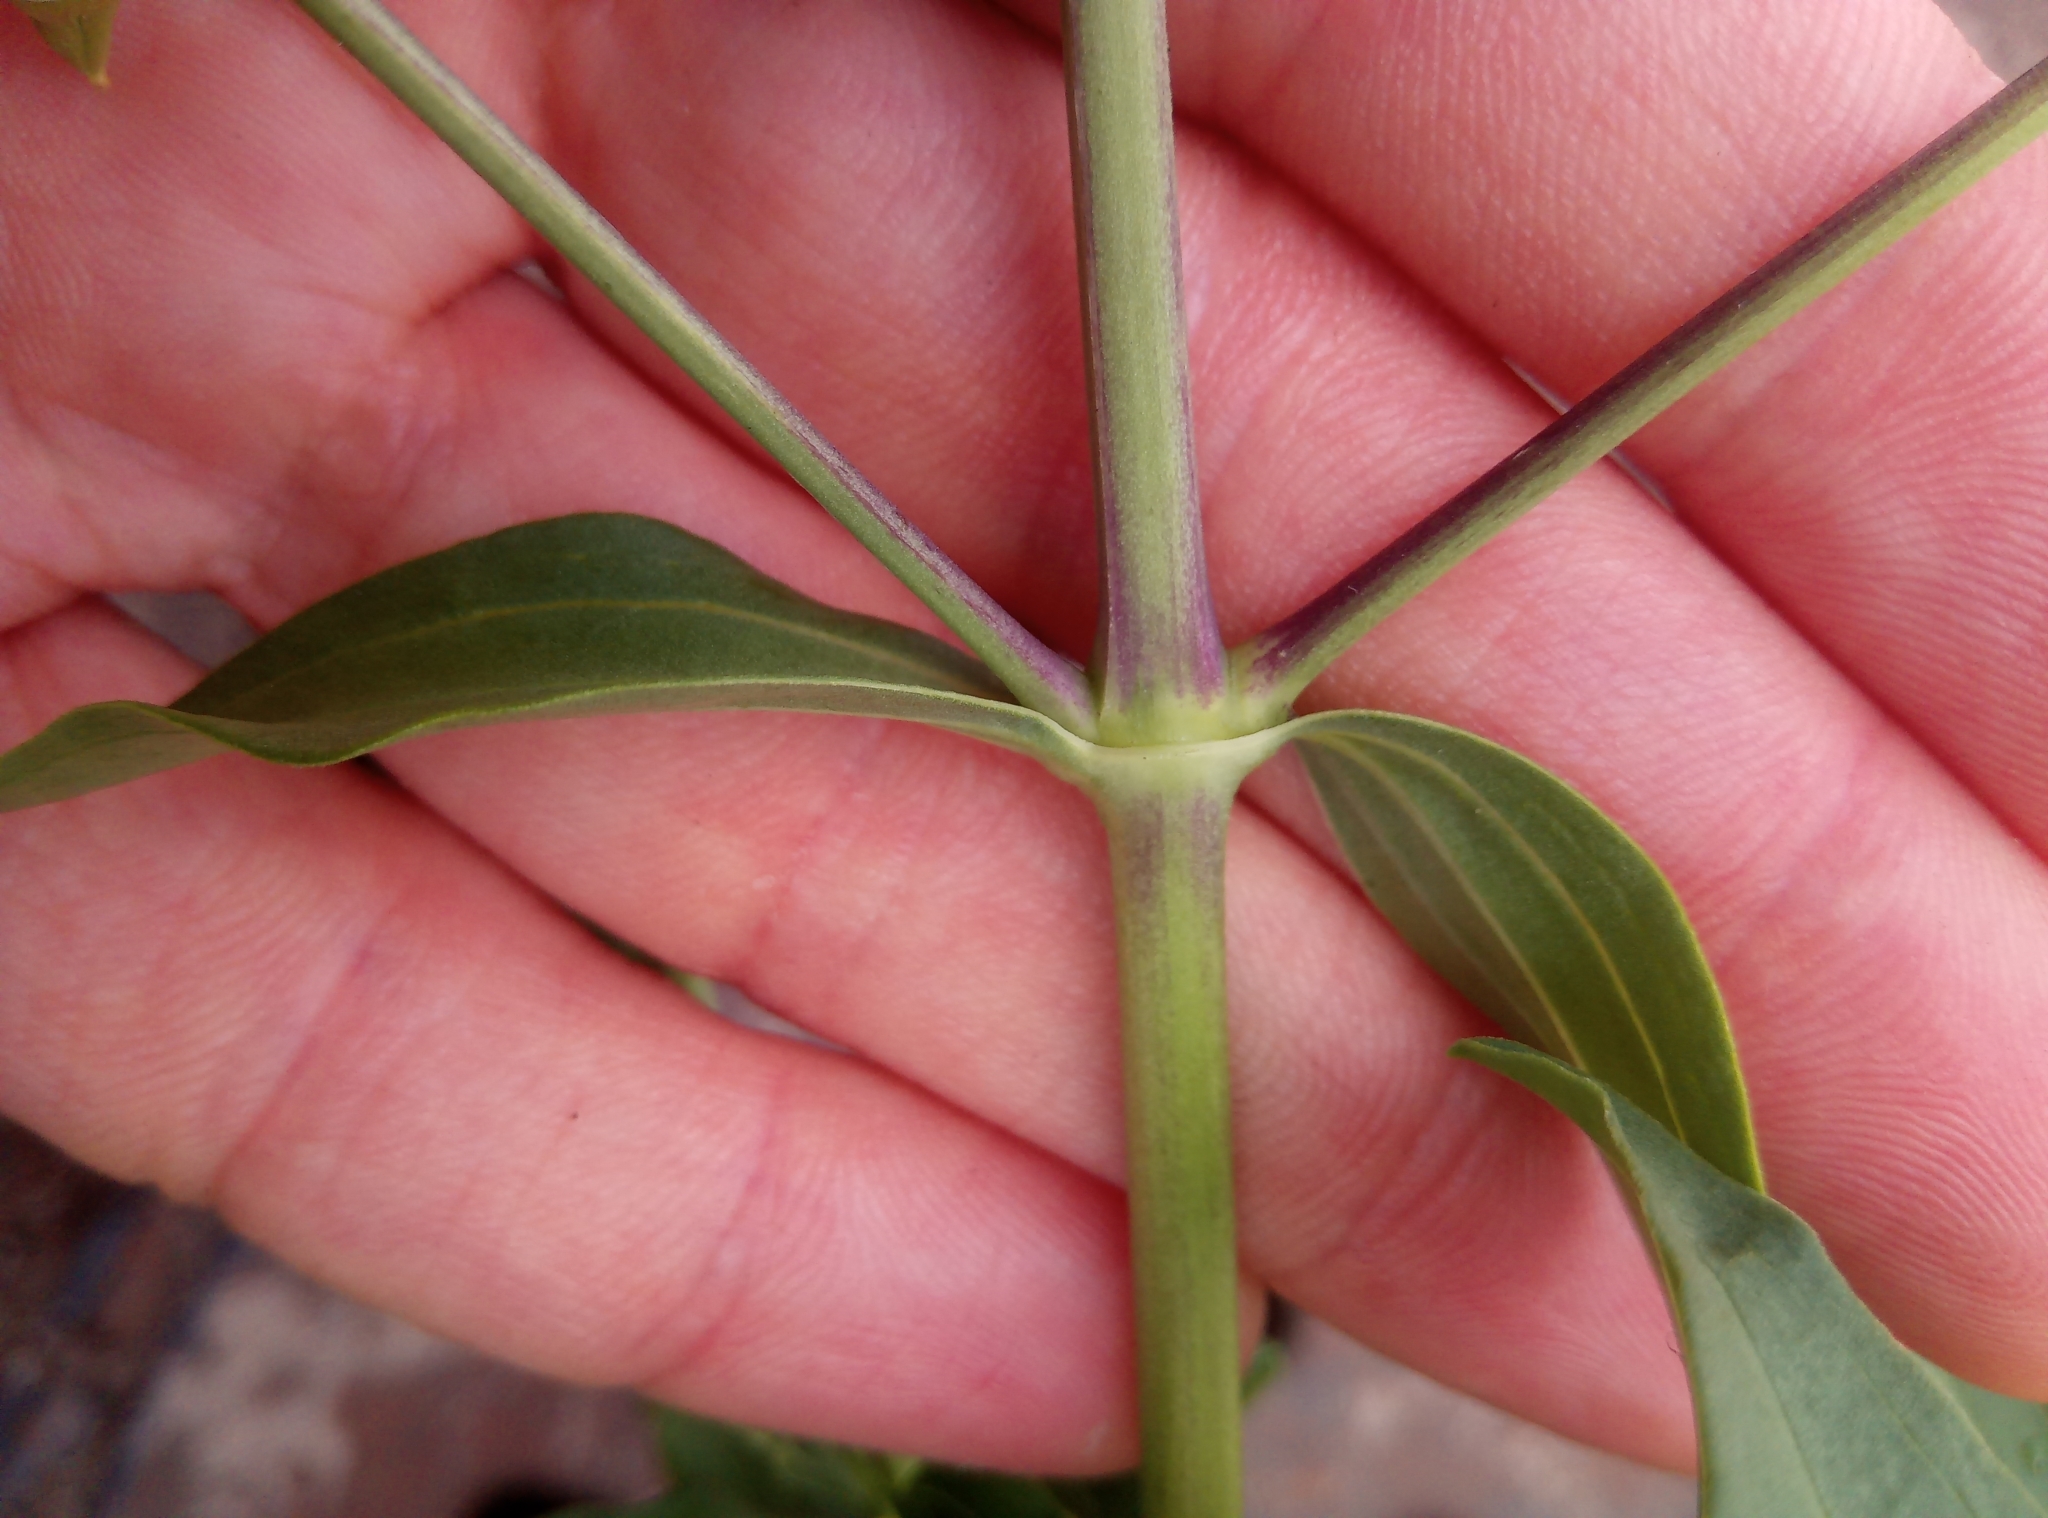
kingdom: Plantae
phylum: Tracheophyta
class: Magnoliopsida
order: Caryophyllales
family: Caryophyllaceae
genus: Saponaria
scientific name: Saponaria officinalis
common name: Soapwort
